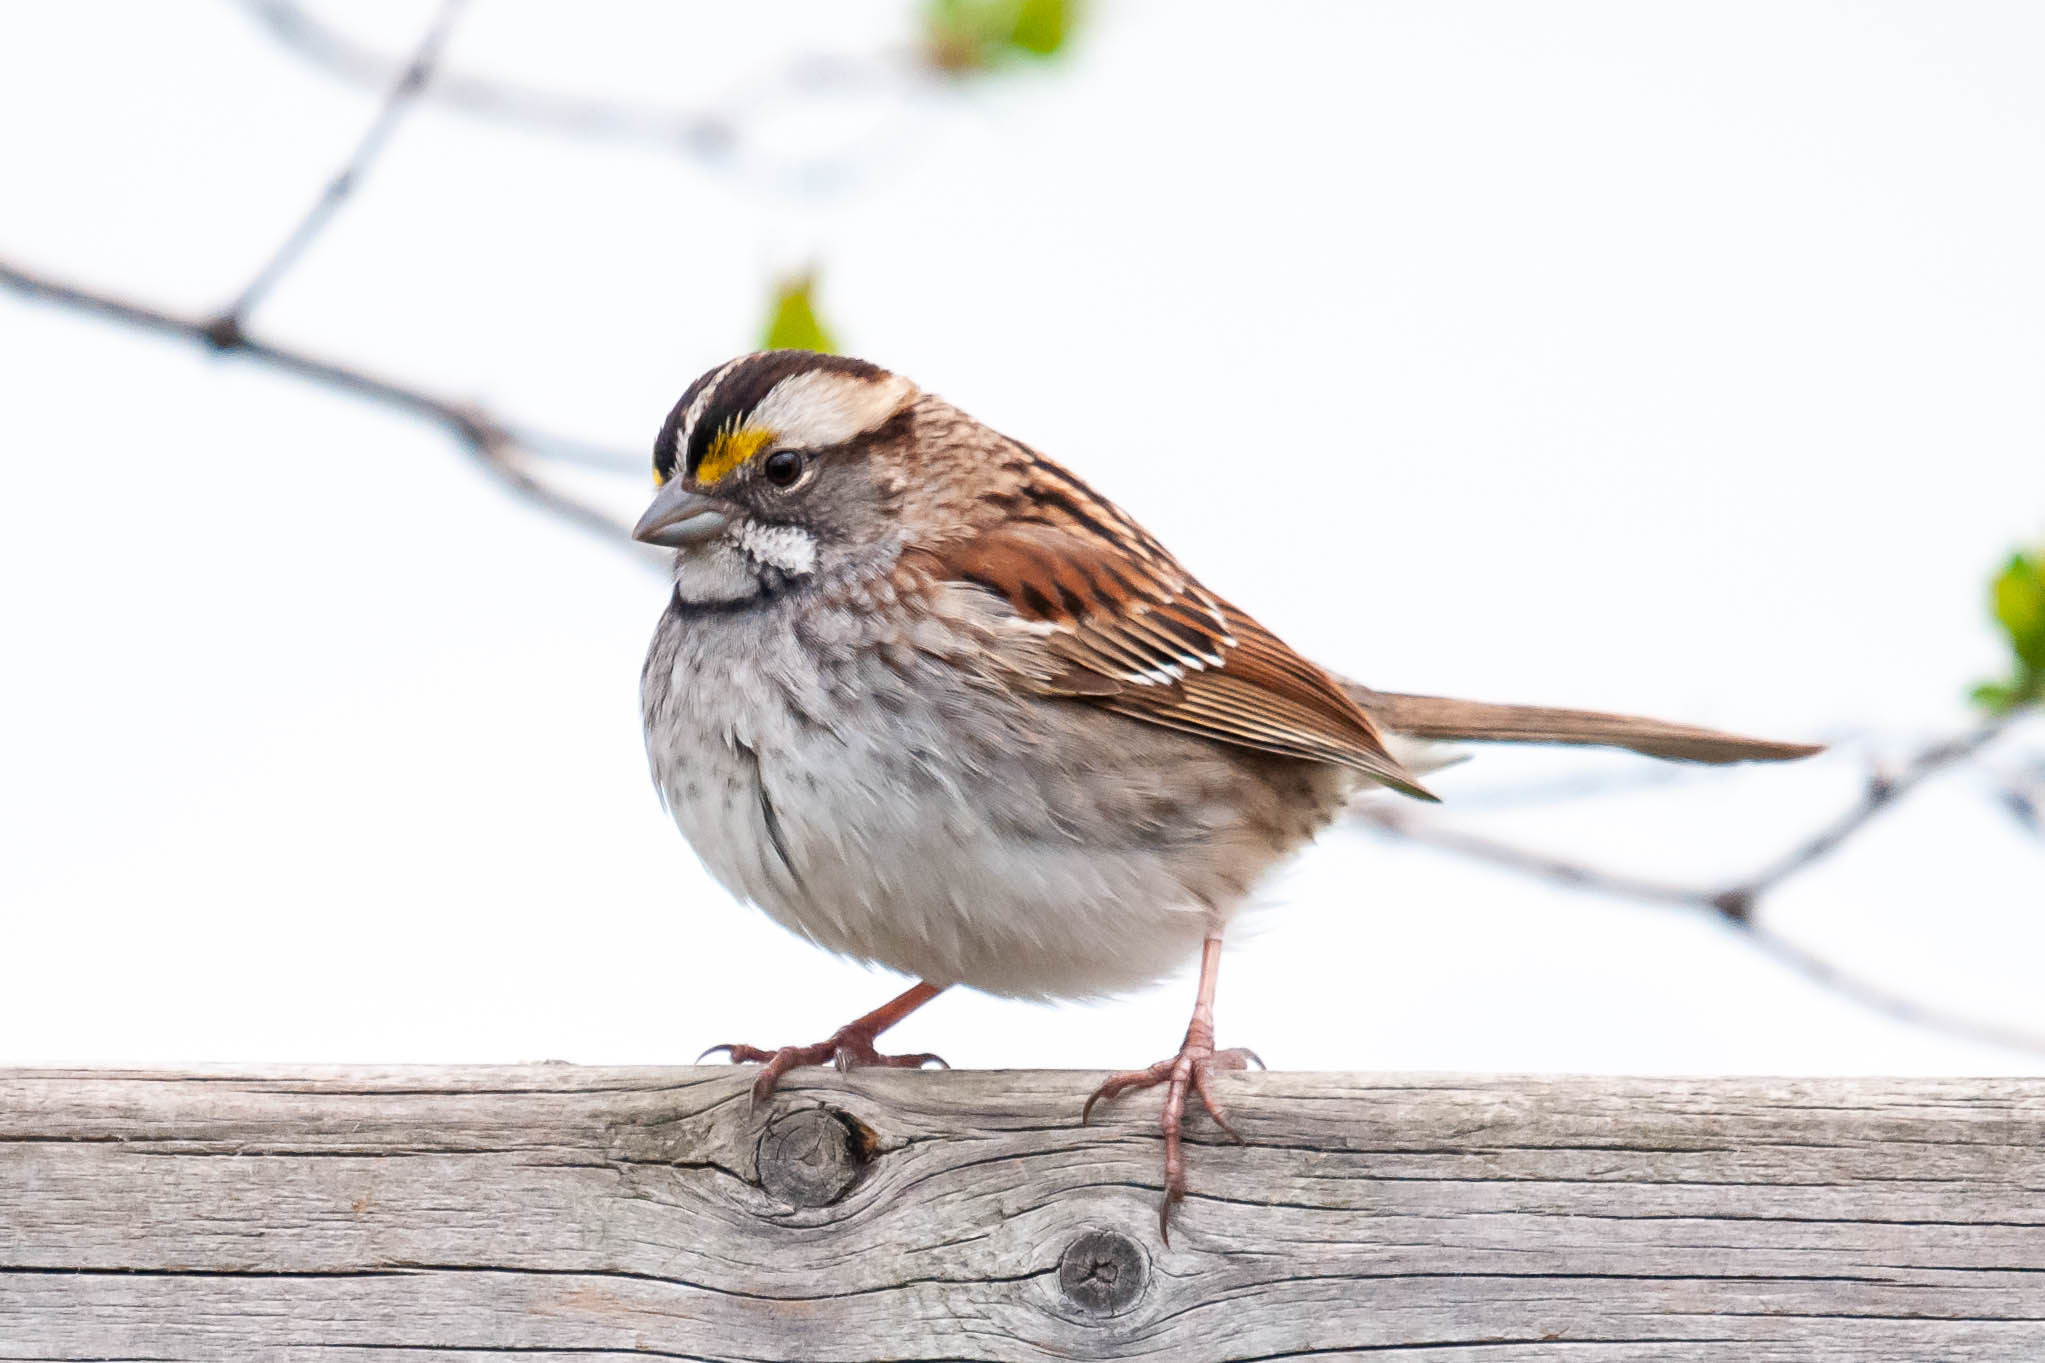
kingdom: Animalia
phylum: Chordata
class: Aves
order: Passeriformes
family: Passerellidae
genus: Zonotrichia
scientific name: Zonotrichia albicollis
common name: White-throated sparrow
